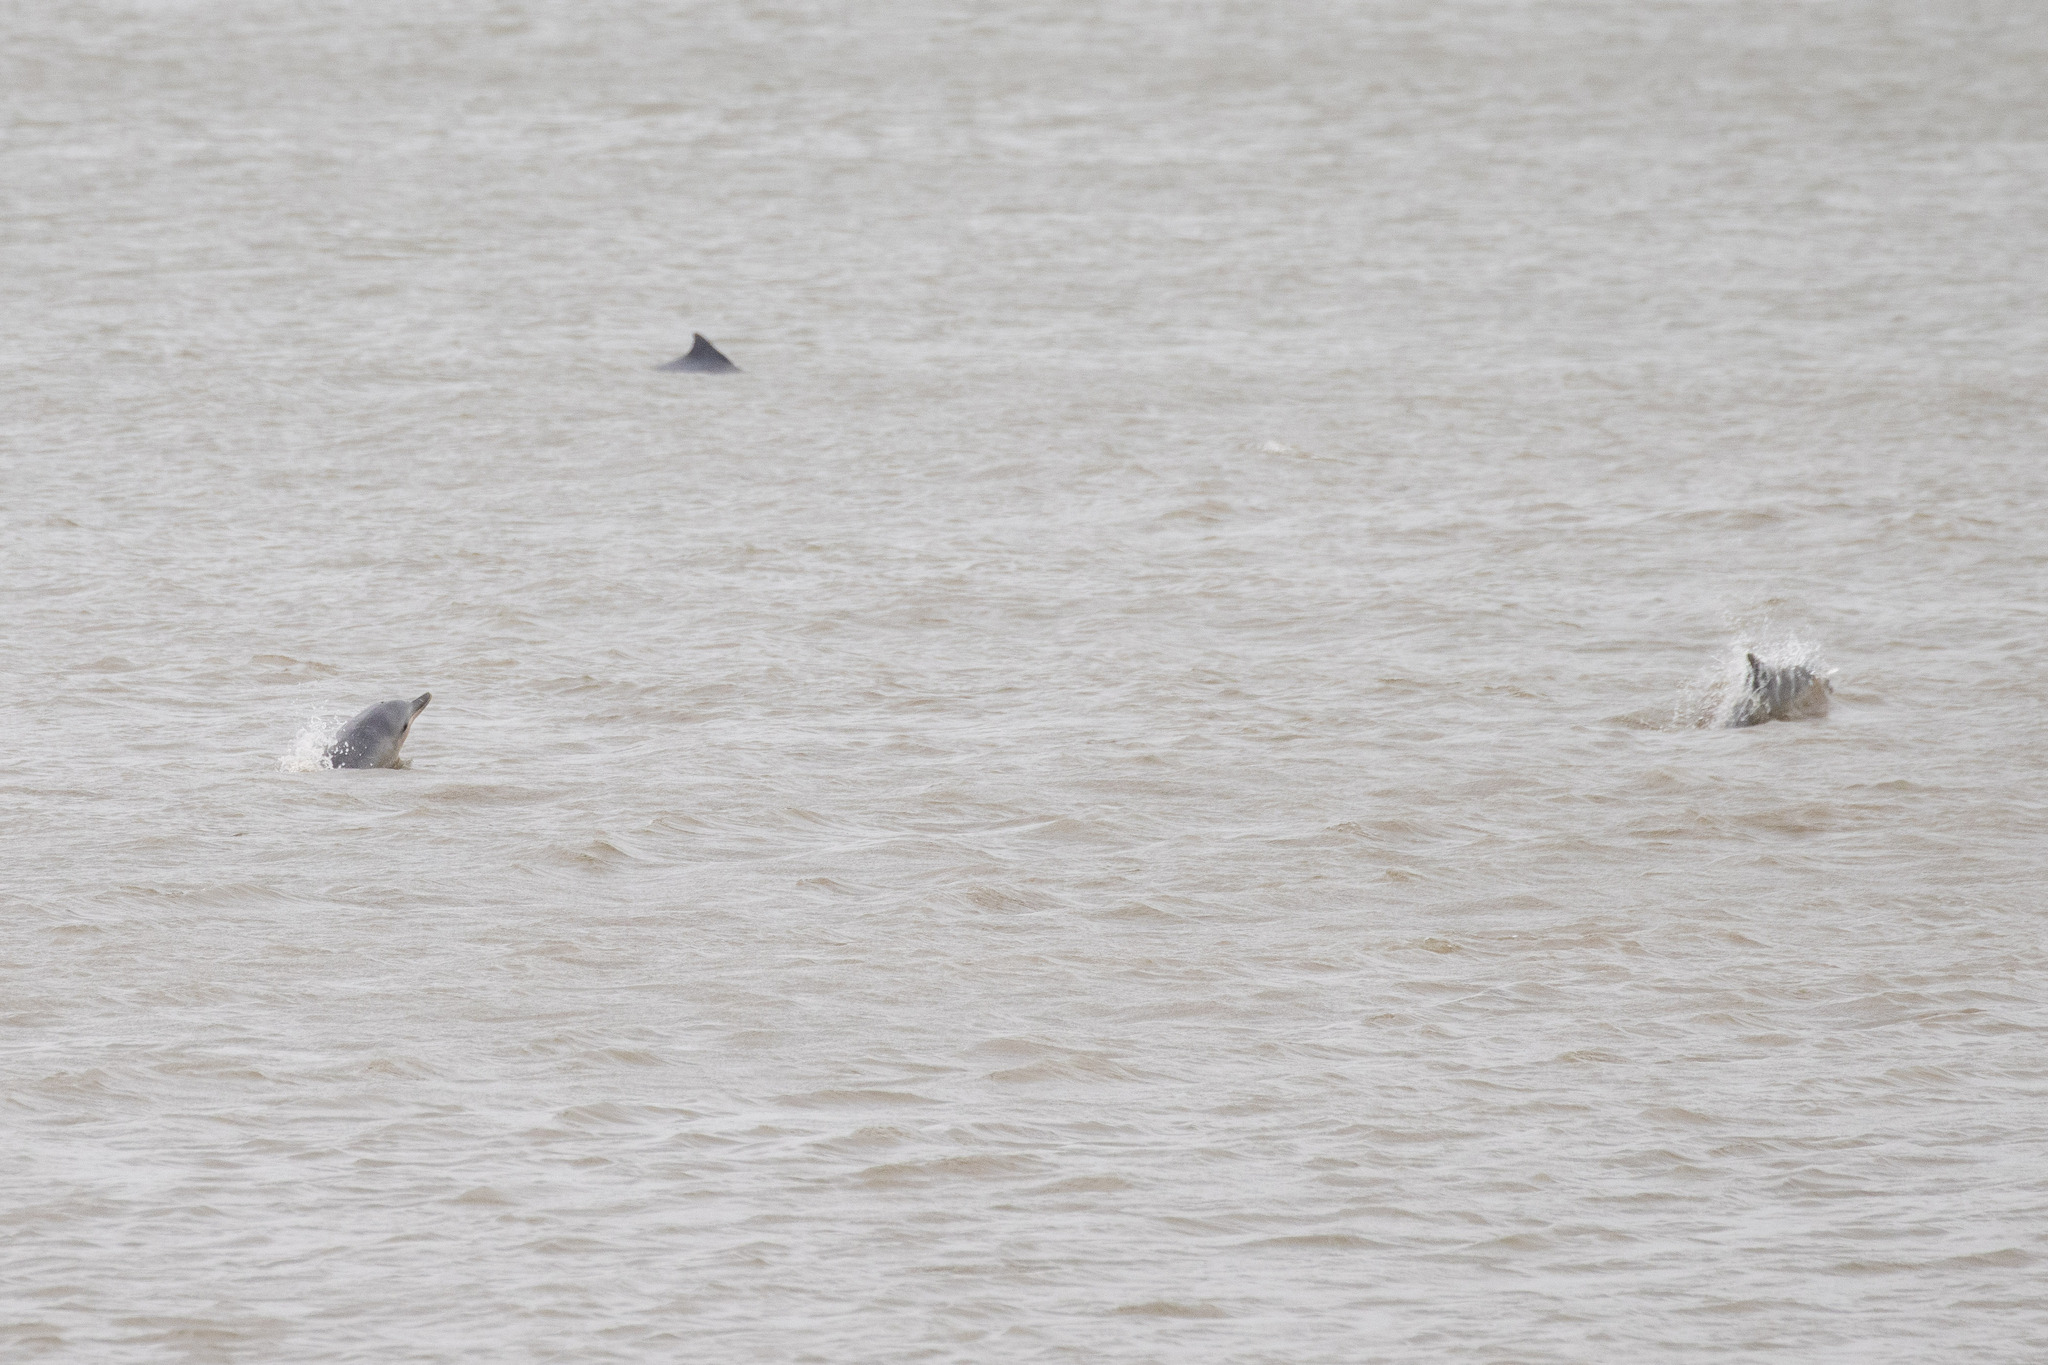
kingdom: Animalia
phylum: Chordata
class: Mammalia
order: Cetacea
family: Delphinidae
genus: Sotalia
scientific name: Sotalia guianensis
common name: Guiana dolphin
